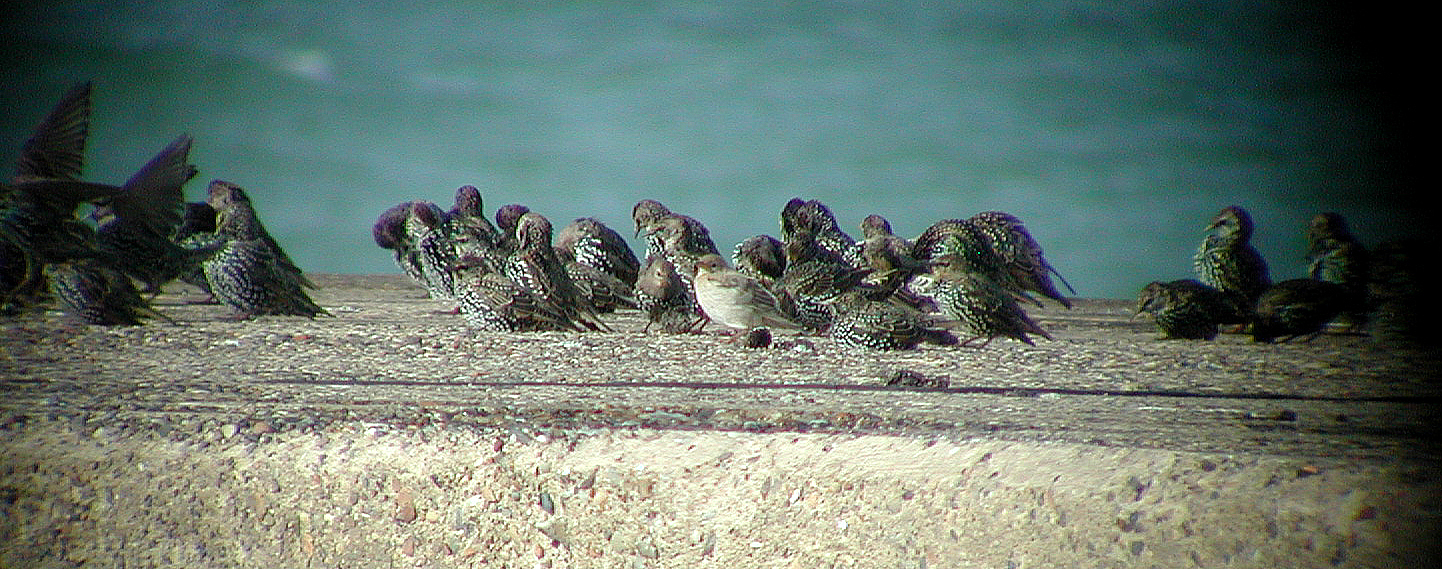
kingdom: Animalia
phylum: Chordata
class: Aves
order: Passeriformes
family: Sturnidae
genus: Pastor
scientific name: Pastor roseus
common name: Rosy starling
